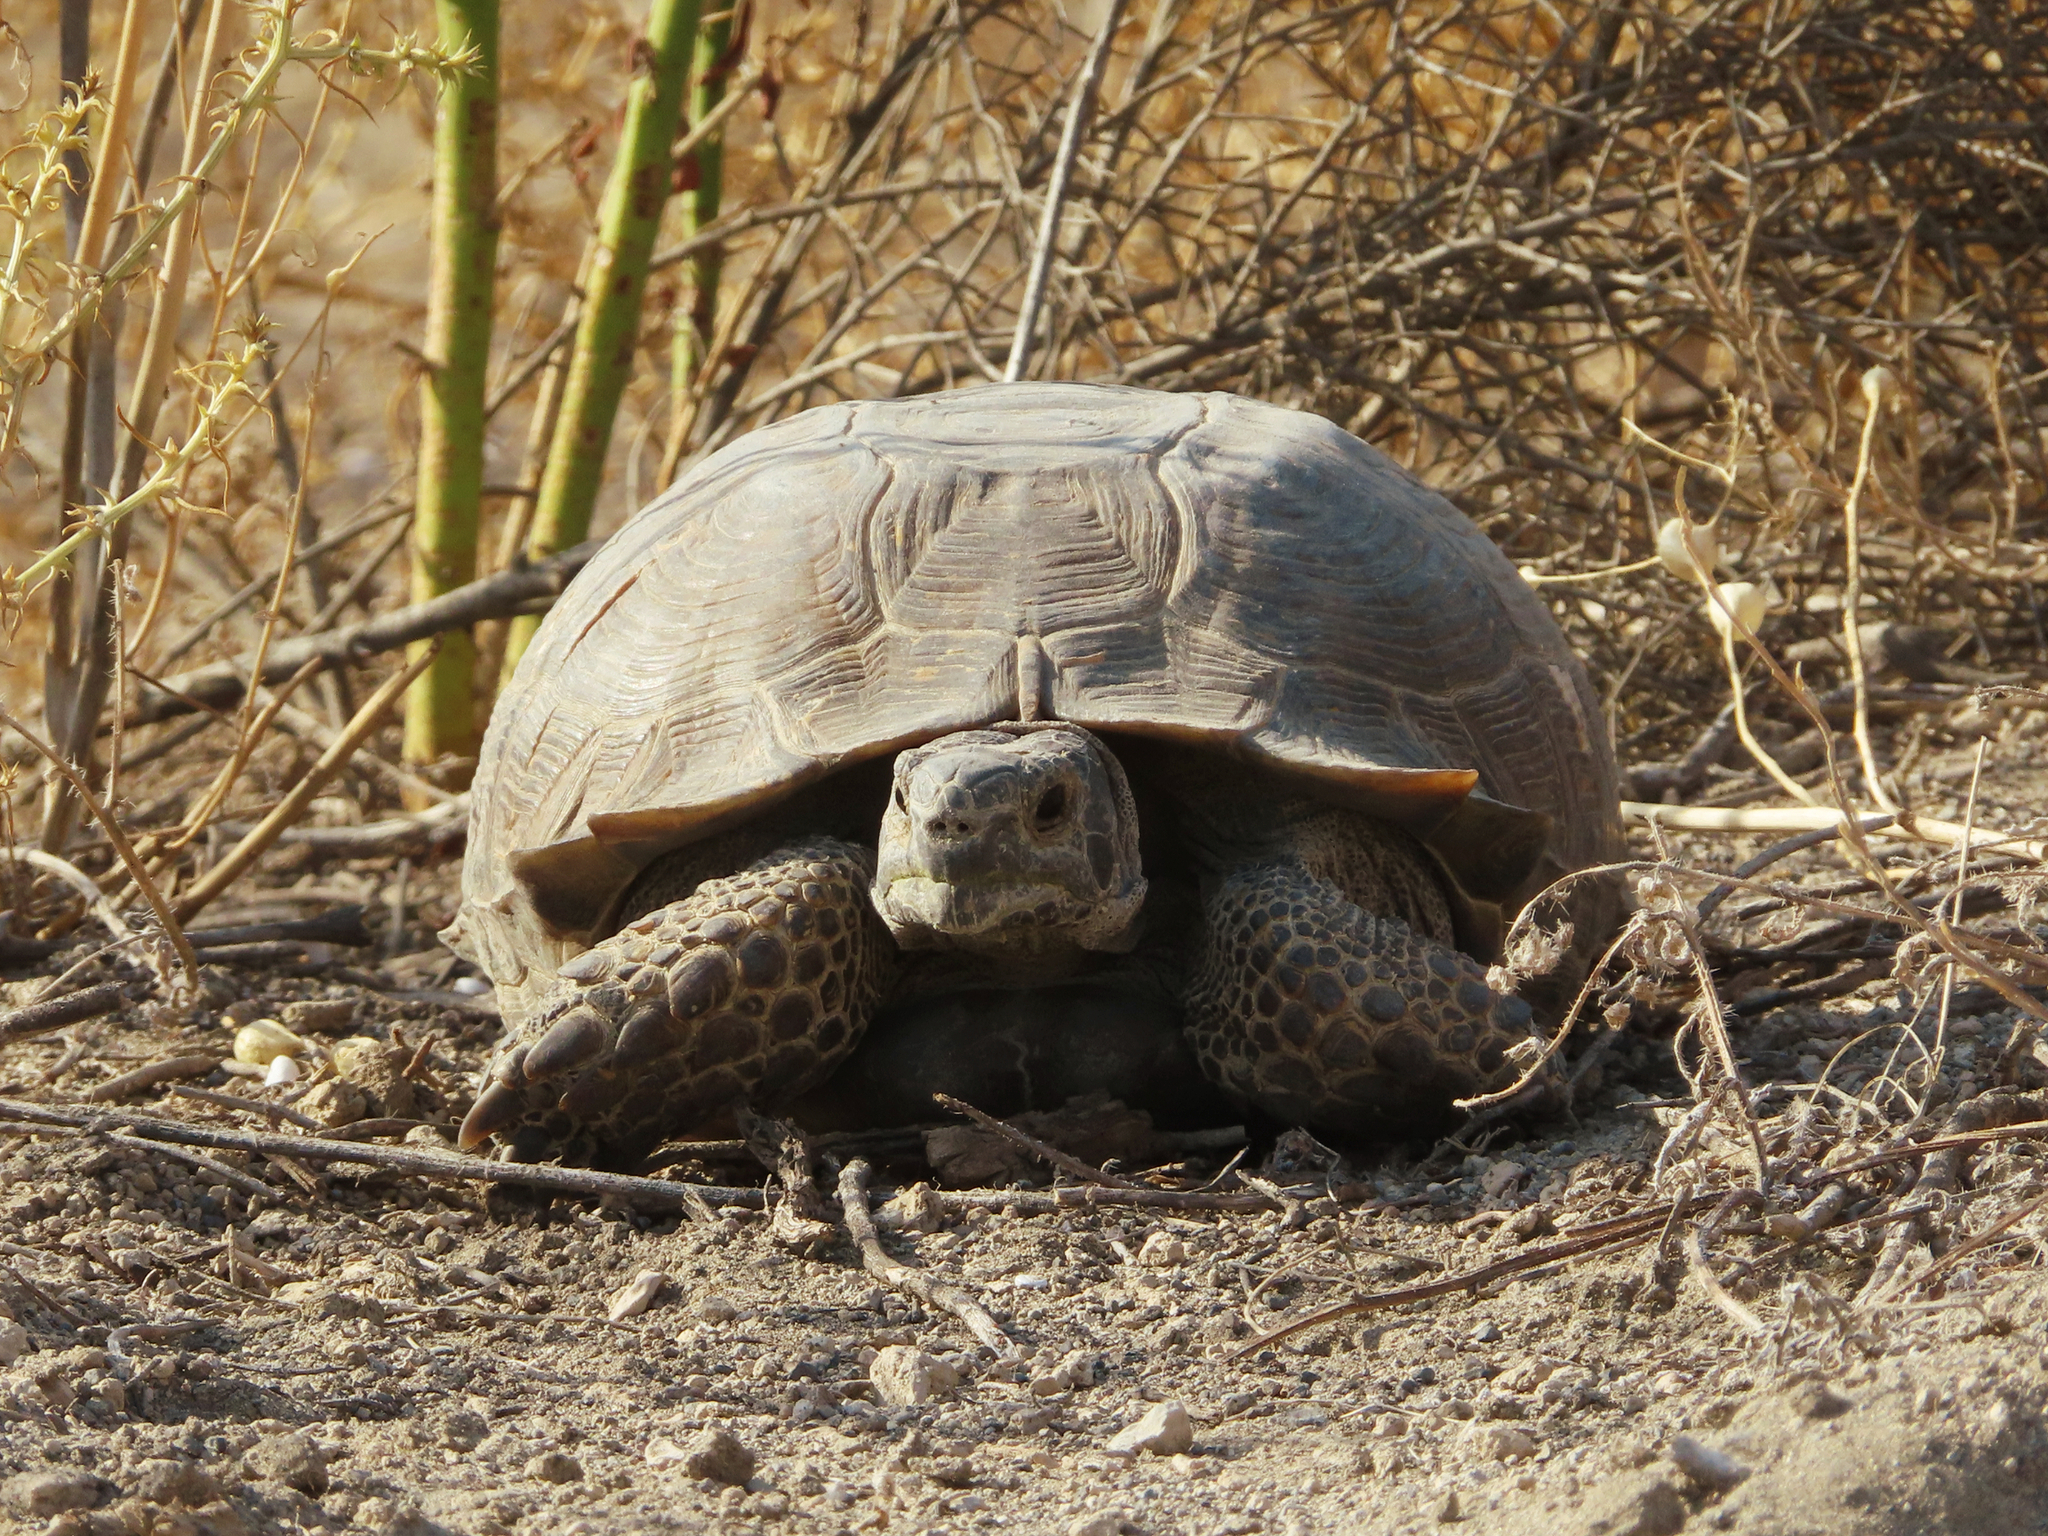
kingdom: Animalia
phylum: Chordata
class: Testudines
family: Testudinidae
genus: Testudo
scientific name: Testudo graeca
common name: Common tortoise
